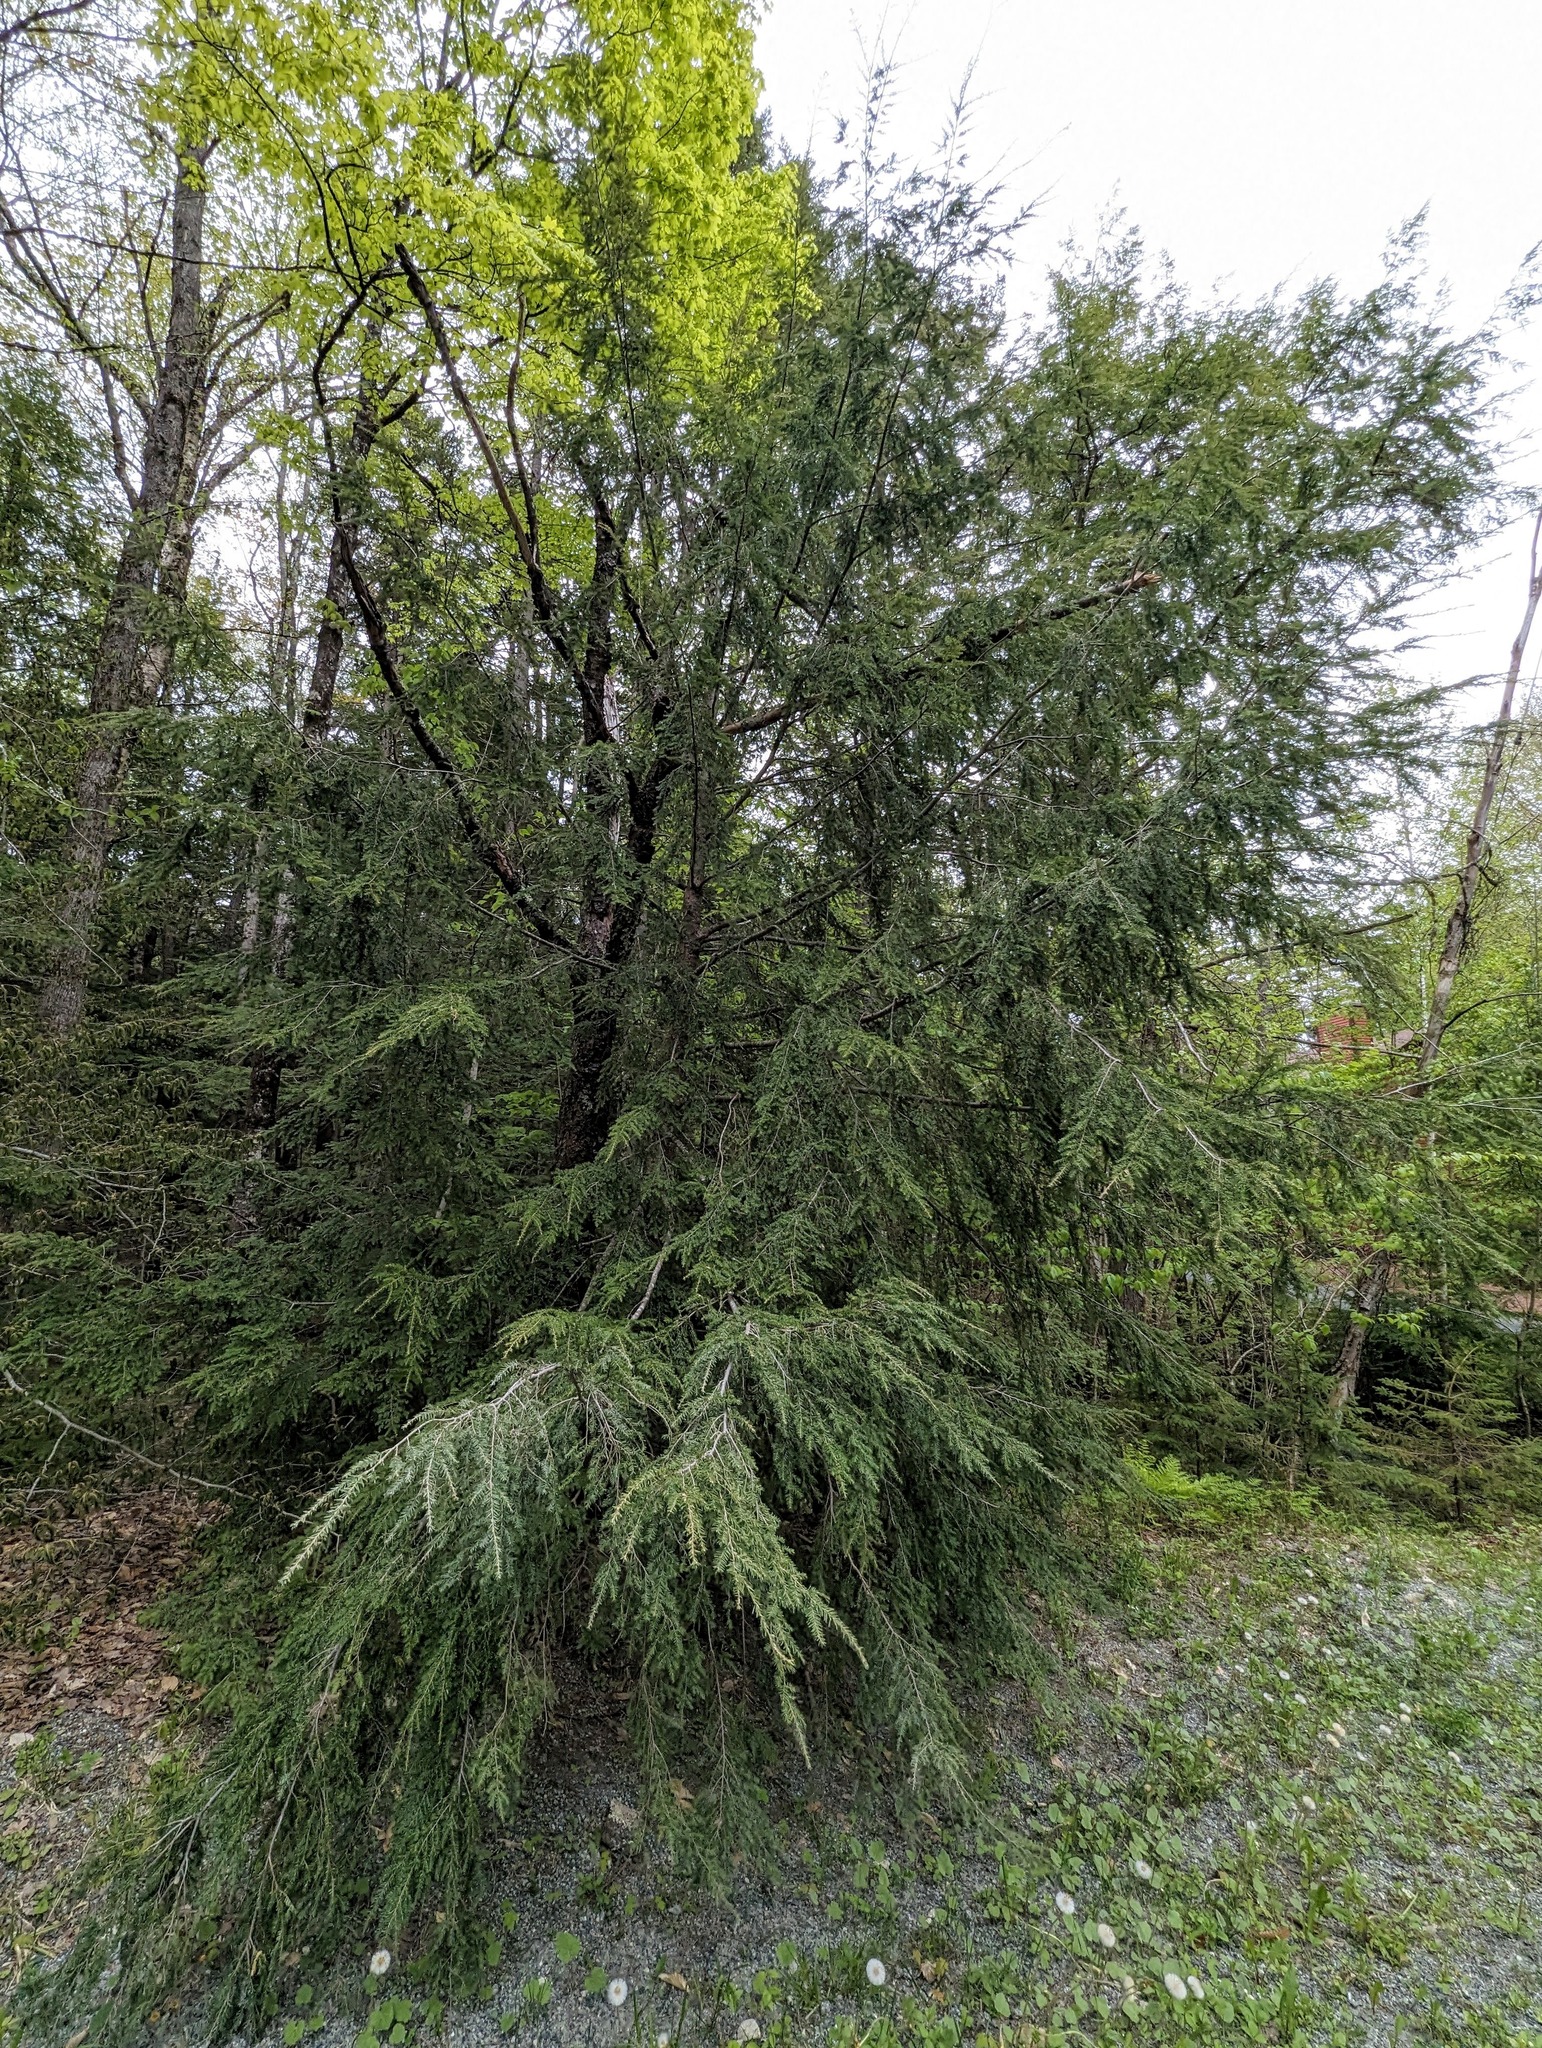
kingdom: Plantae
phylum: Tracheophyta
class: Pinopsida
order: Pinales
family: Pinaceae
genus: Tsuga
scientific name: Tsuga canadensis
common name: Eastern hemlock
